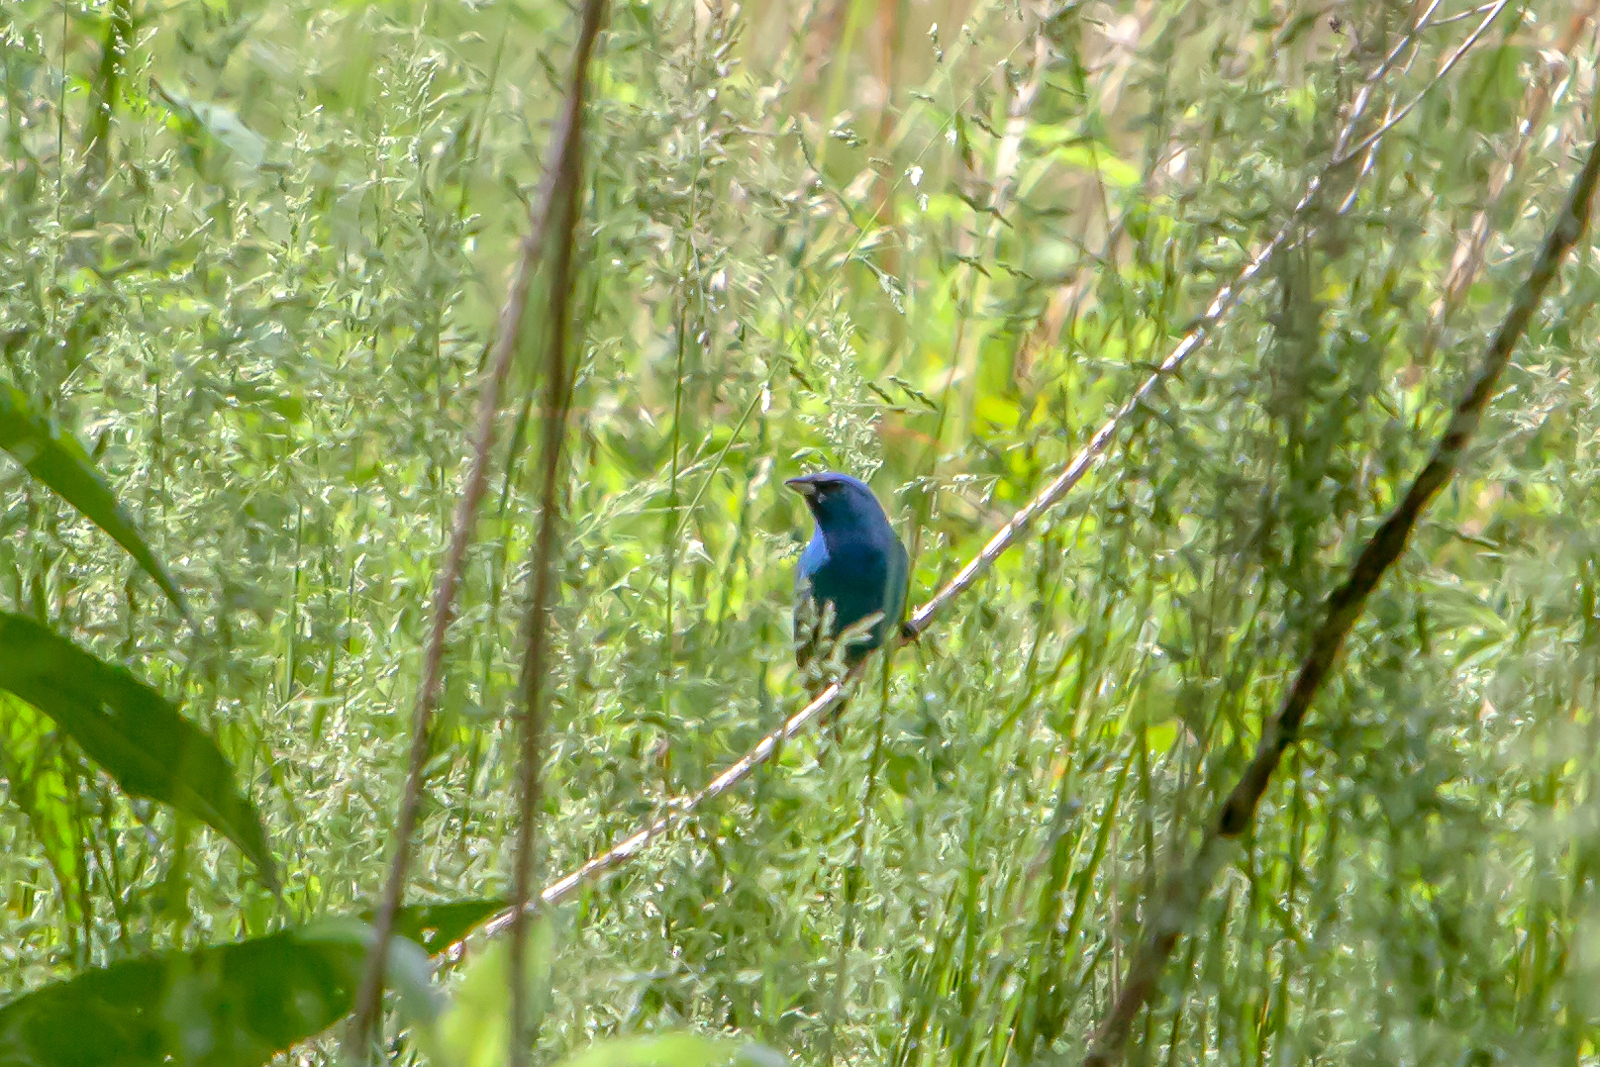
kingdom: Animalia
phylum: Chordata
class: Aves
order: Passeriformes
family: Cardinalidae
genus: Passerina
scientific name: Passerina cyanea
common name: Indigo bunting
